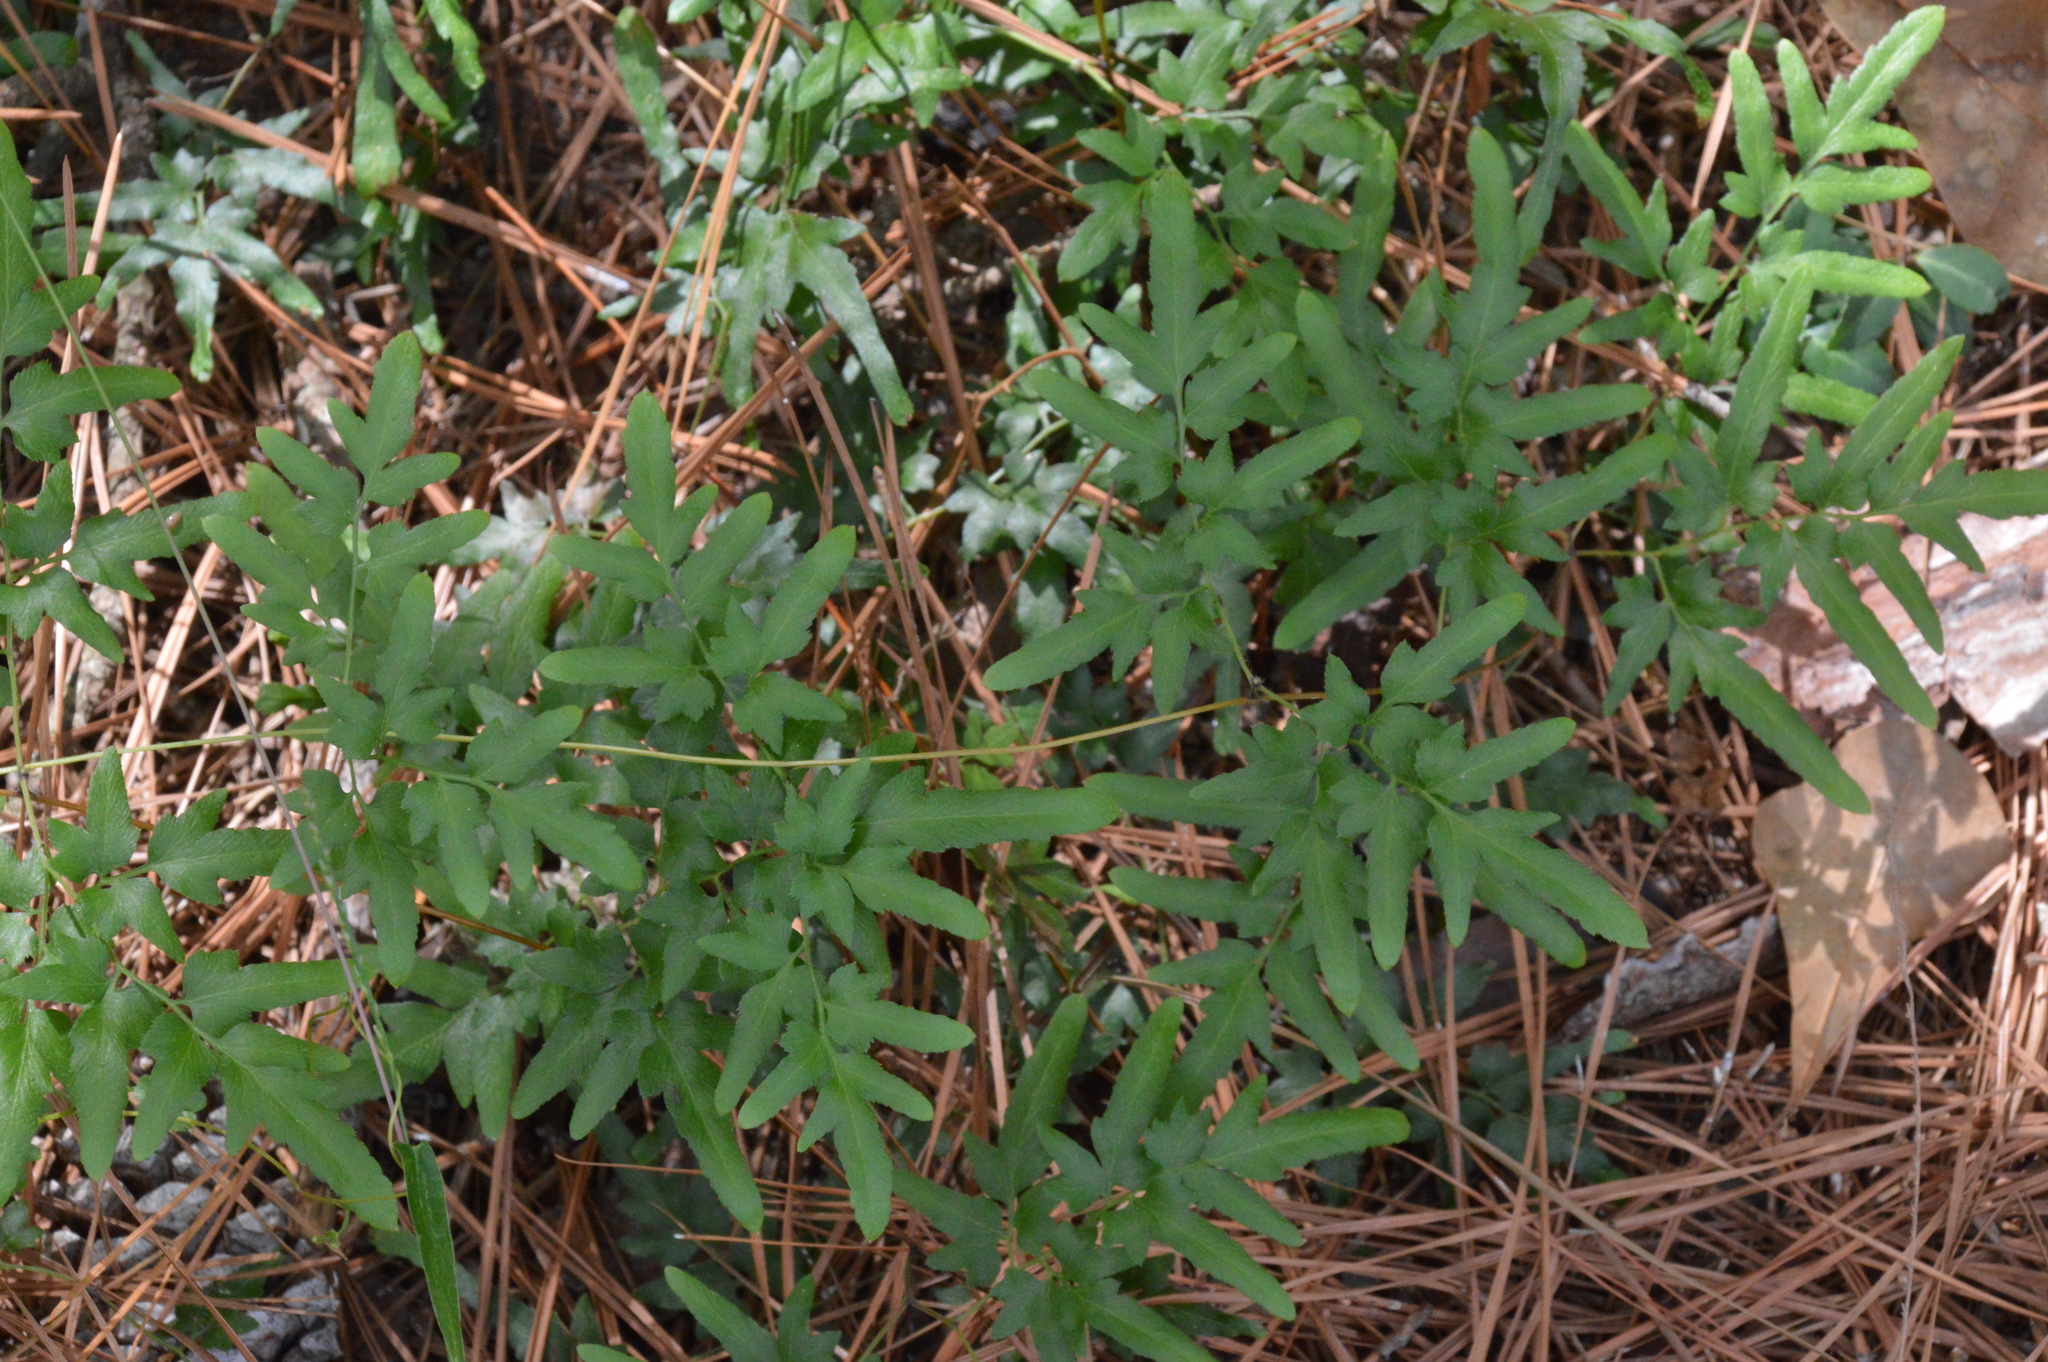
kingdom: Plantae
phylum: Tracheophyta
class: Polypodiopsida
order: Schizaeales
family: Lygodiaceae
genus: Lygodium
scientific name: Lygodium japonicum
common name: Japanese climbing fern
